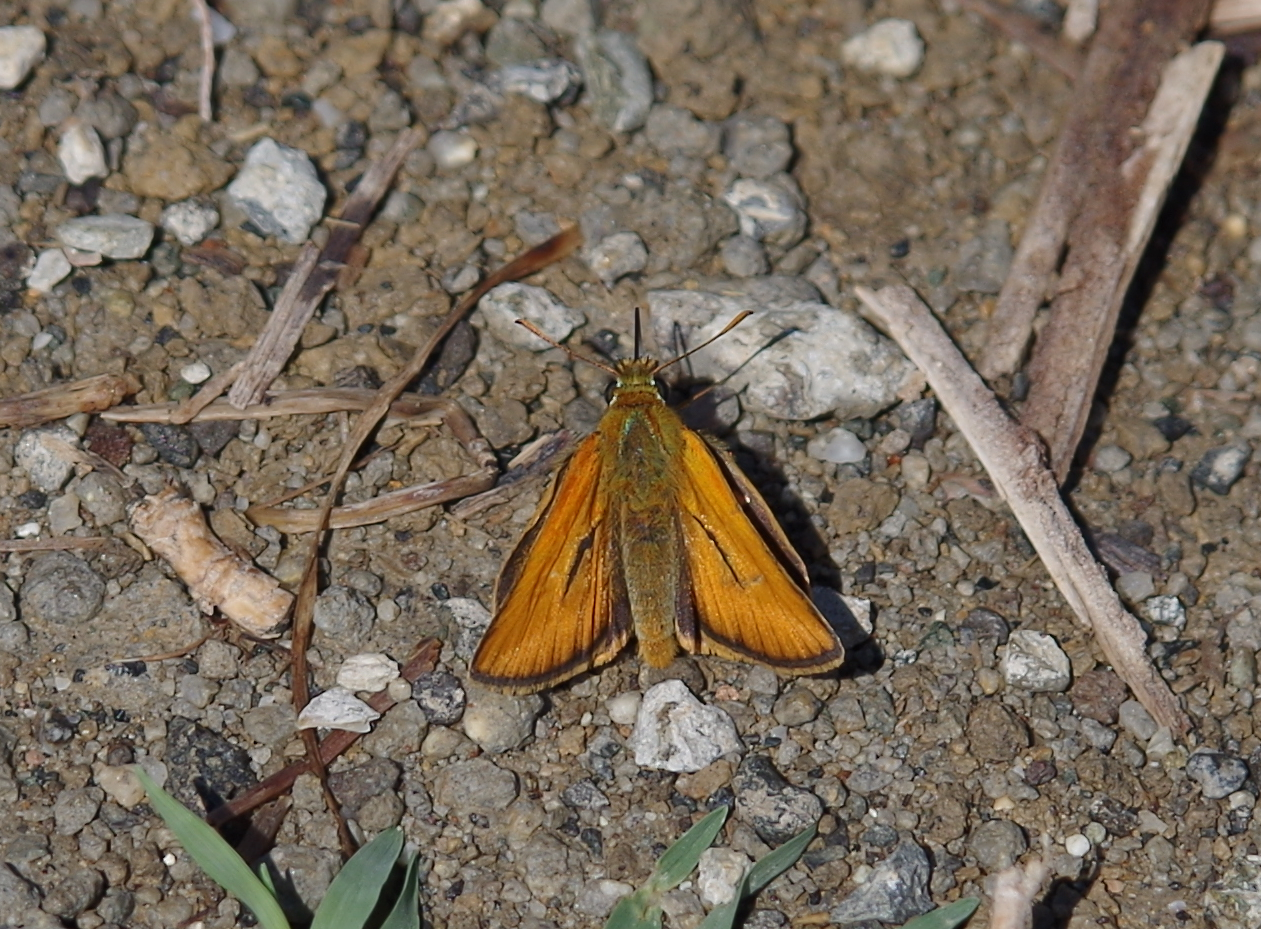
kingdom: Animalia
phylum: Arthropoda
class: Insecta
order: Lepidoptera
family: Hesperiidae
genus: Thymelicus
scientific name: Thymelicus sylvestris
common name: Small skipper
